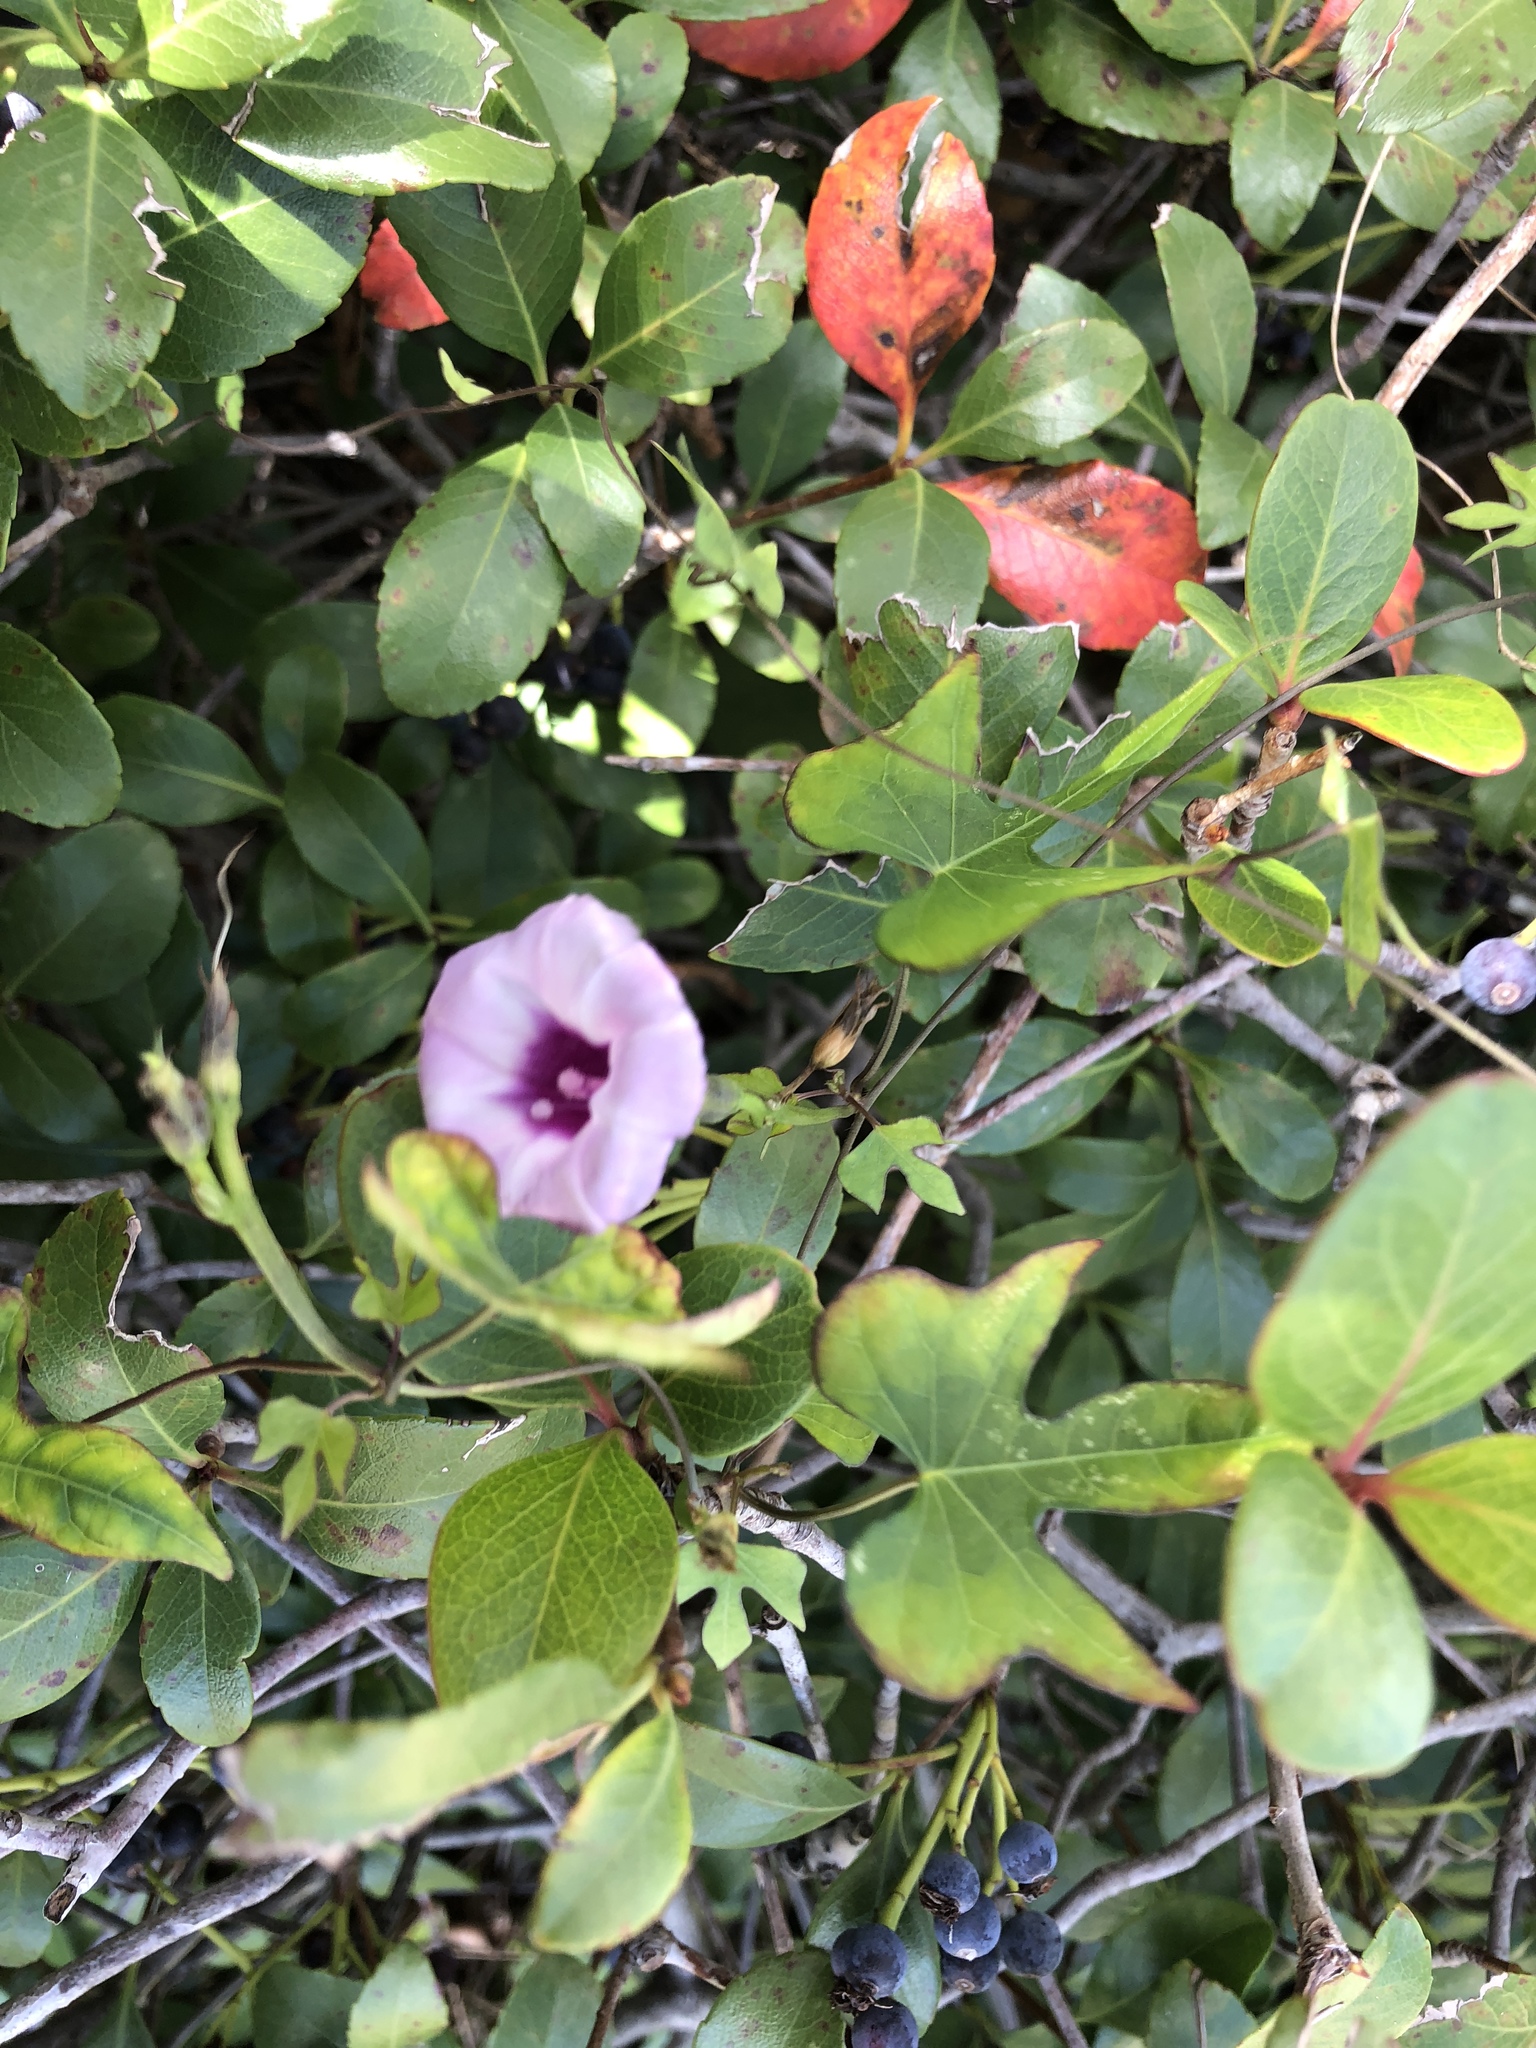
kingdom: Plantae
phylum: Tracheophyta
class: Magnoliopsida
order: Solanales
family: Convolvulaceae
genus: Ipomoea
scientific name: Ipomoea cordatotriloba
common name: Cotton morning glory
